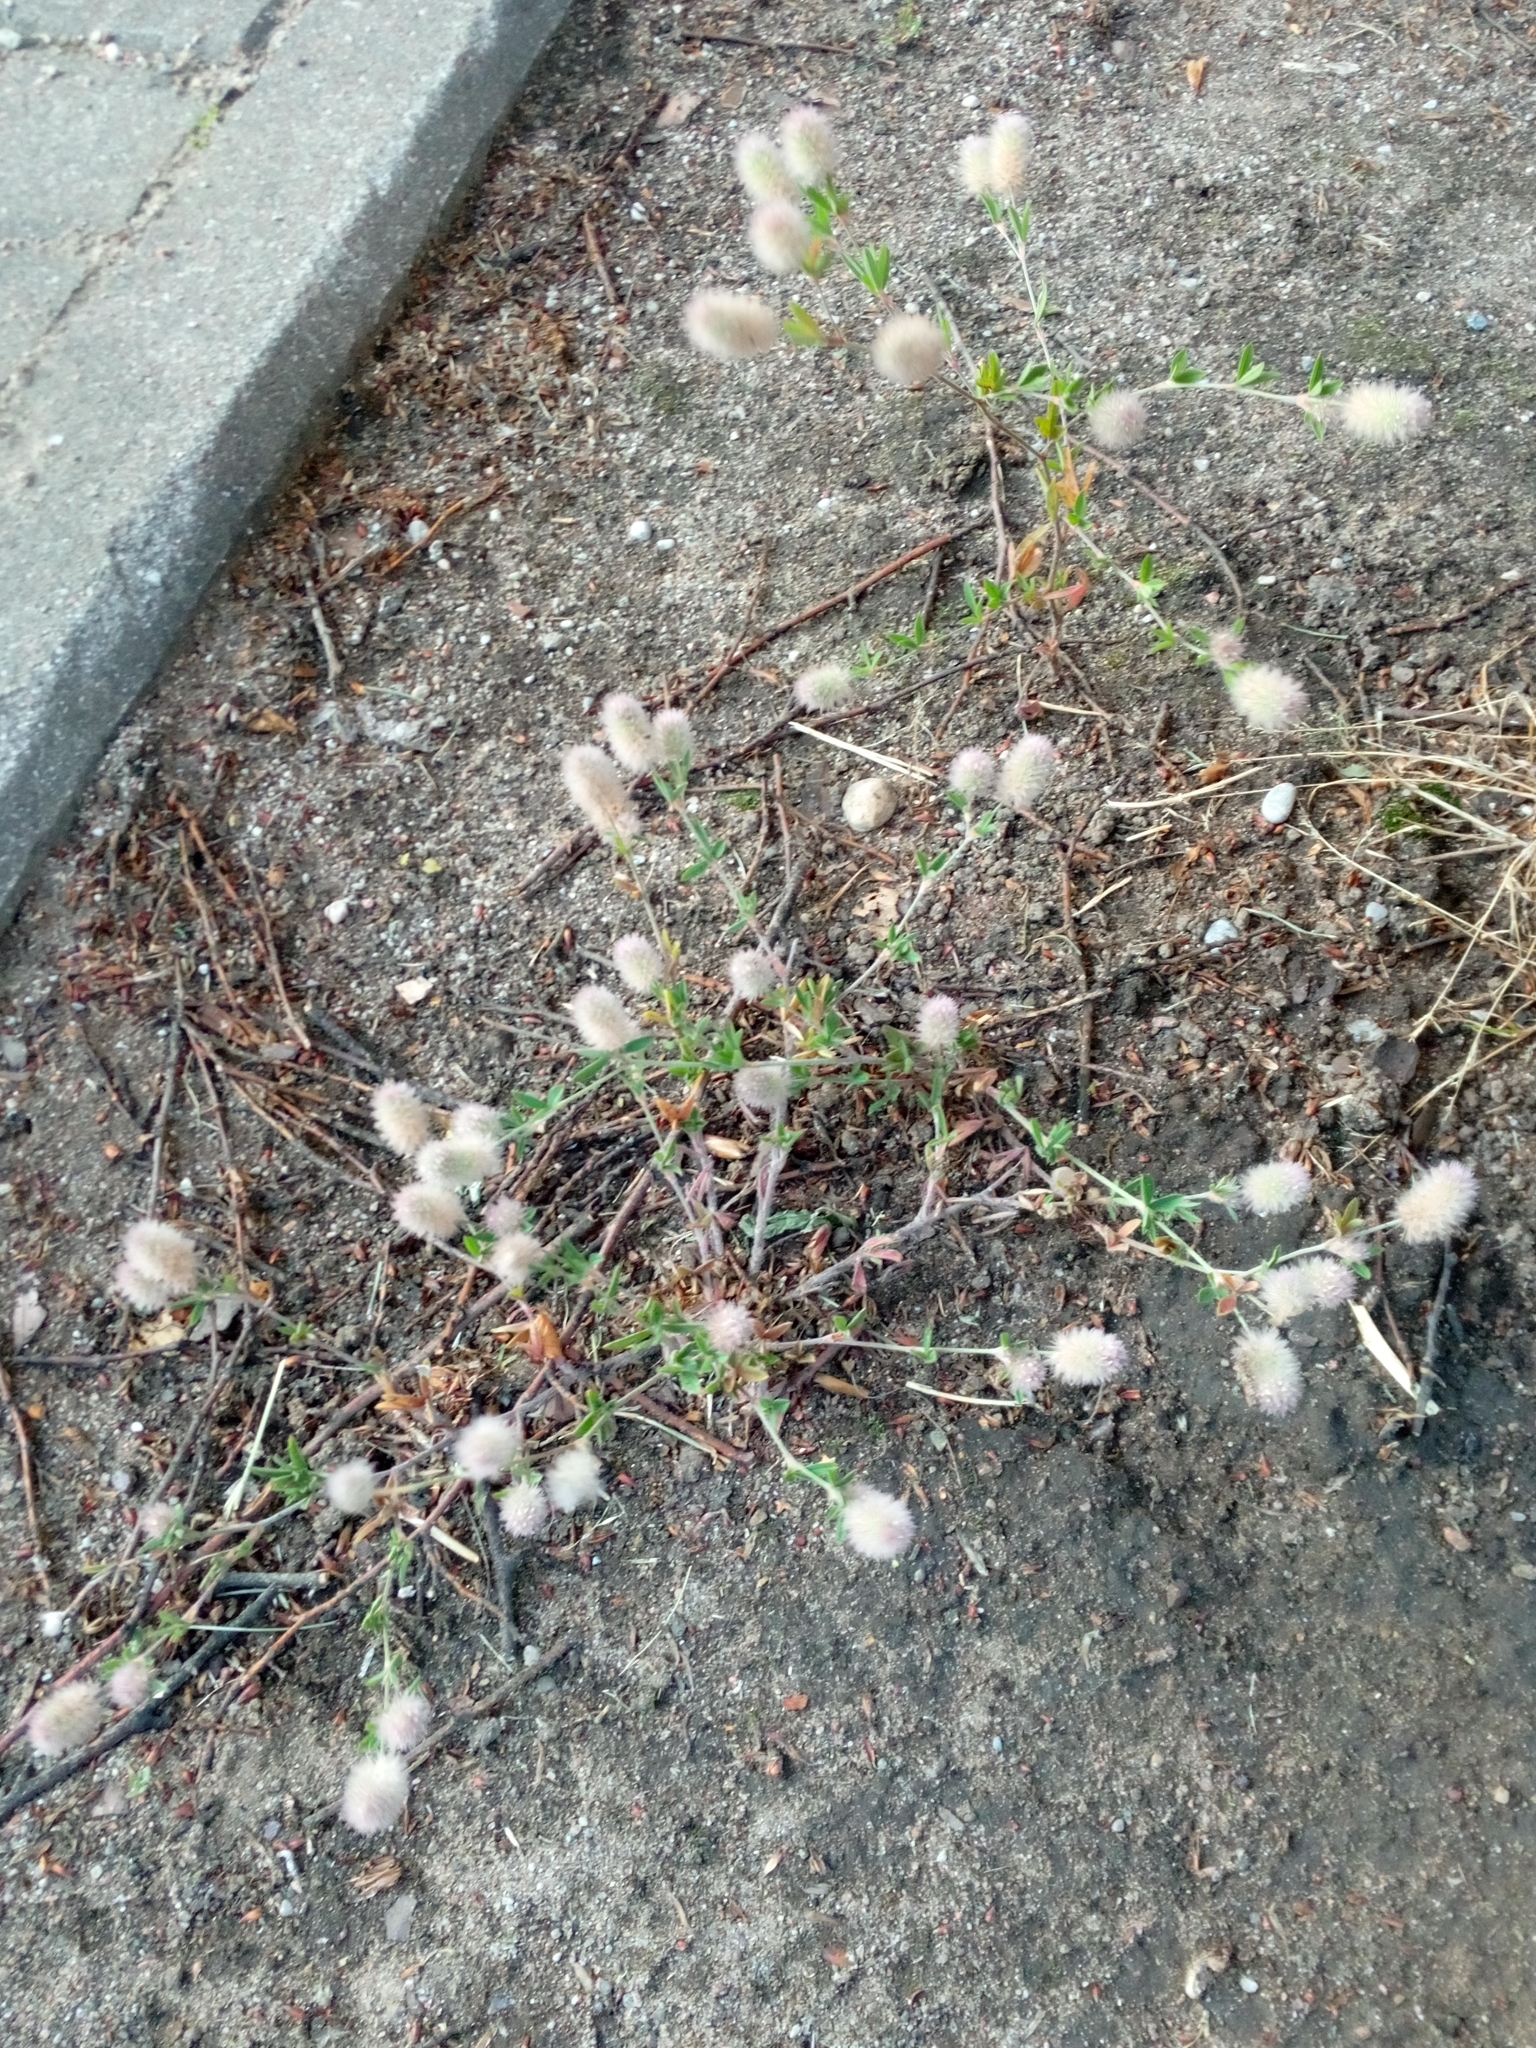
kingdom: Plantae
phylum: Tracheophyta
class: Magnoliopsida
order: Fabales
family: Fabaceae
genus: Trifolium
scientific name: Trifolium arvense
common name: Hare's-foot clover
